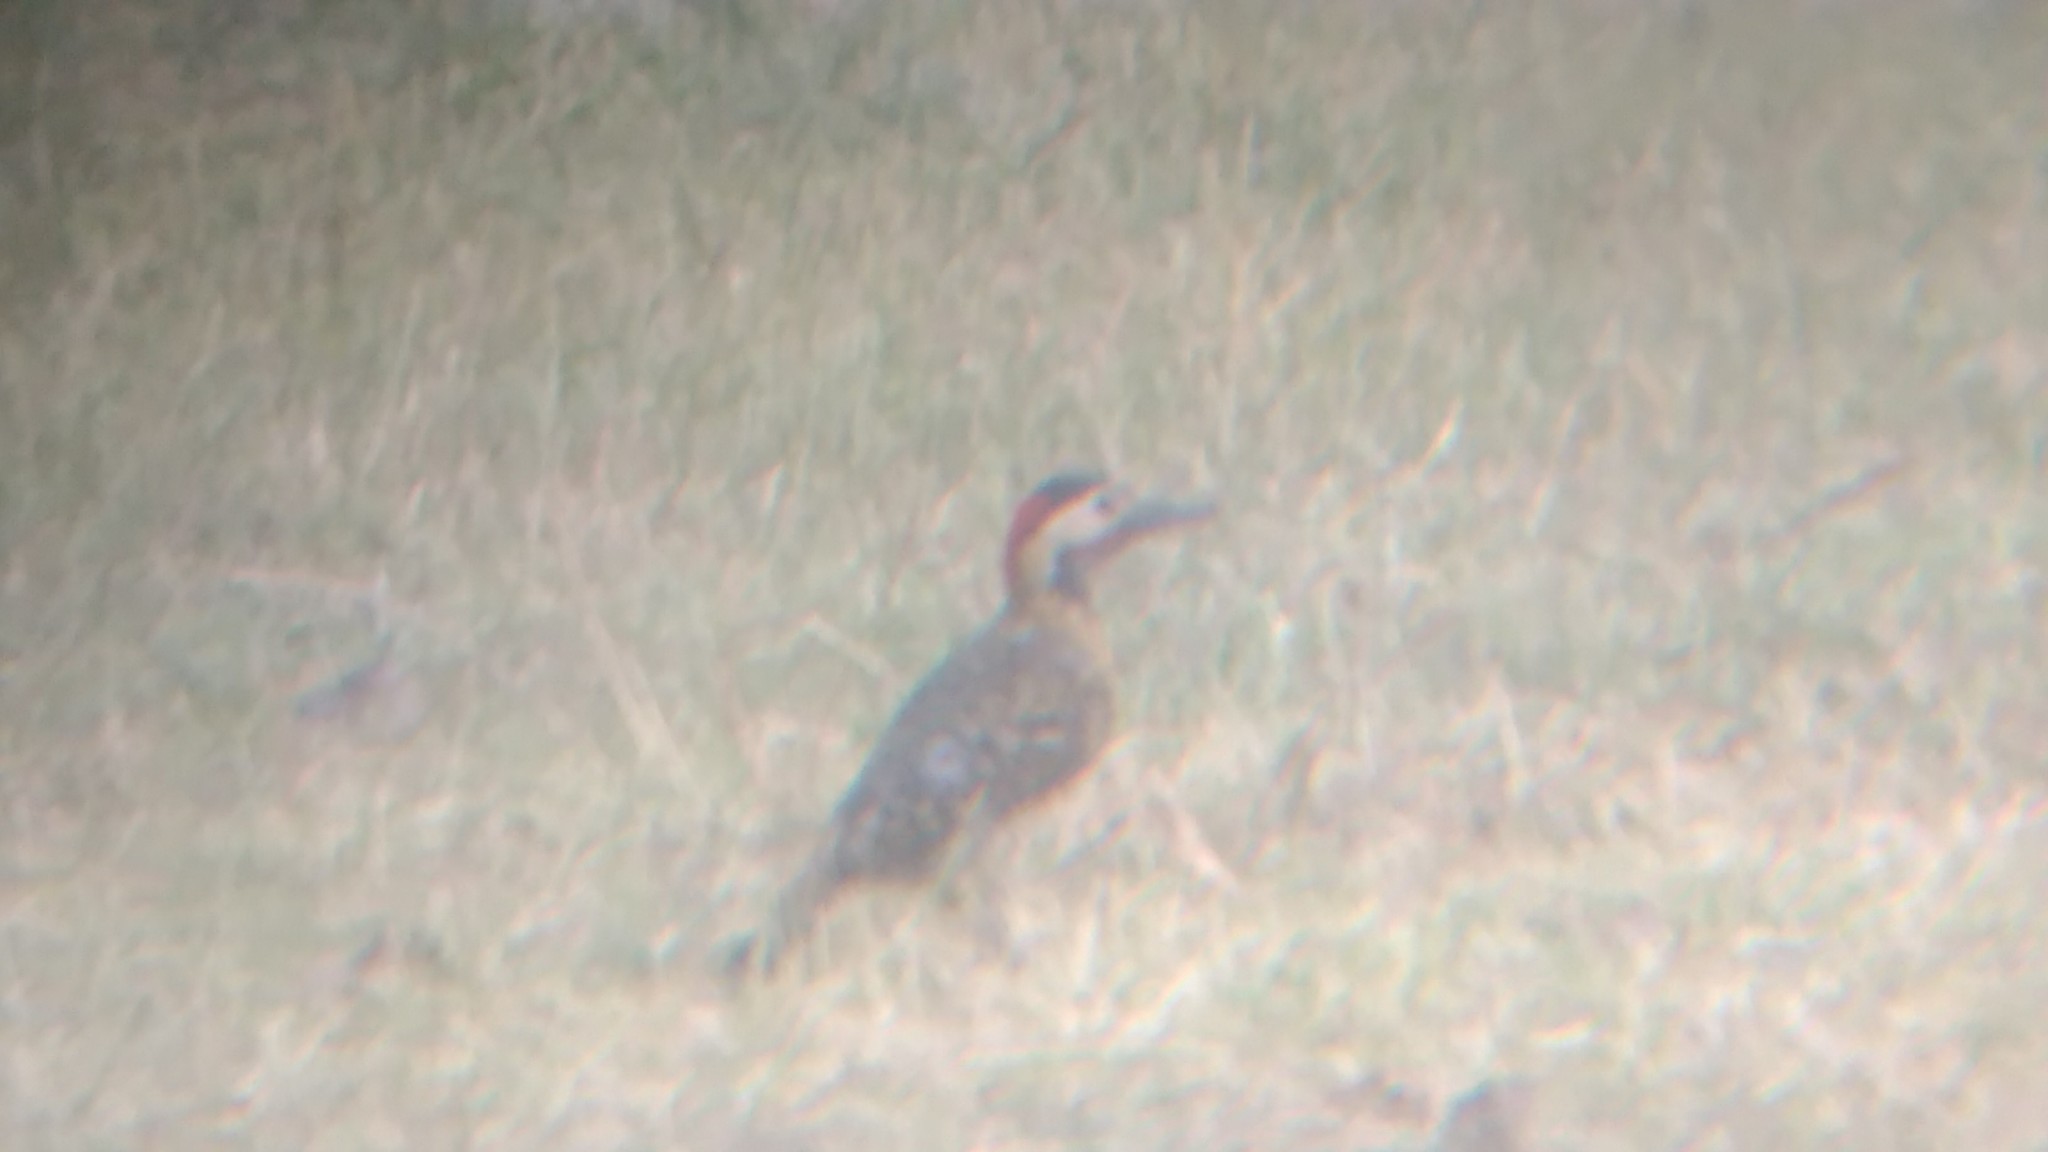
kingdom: Animalia
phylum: Chordata
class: Aves
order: Piciformes
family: Picidae
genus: Colaptes
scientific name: Colaptes melanochloros
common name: Green-barred woodpecker
